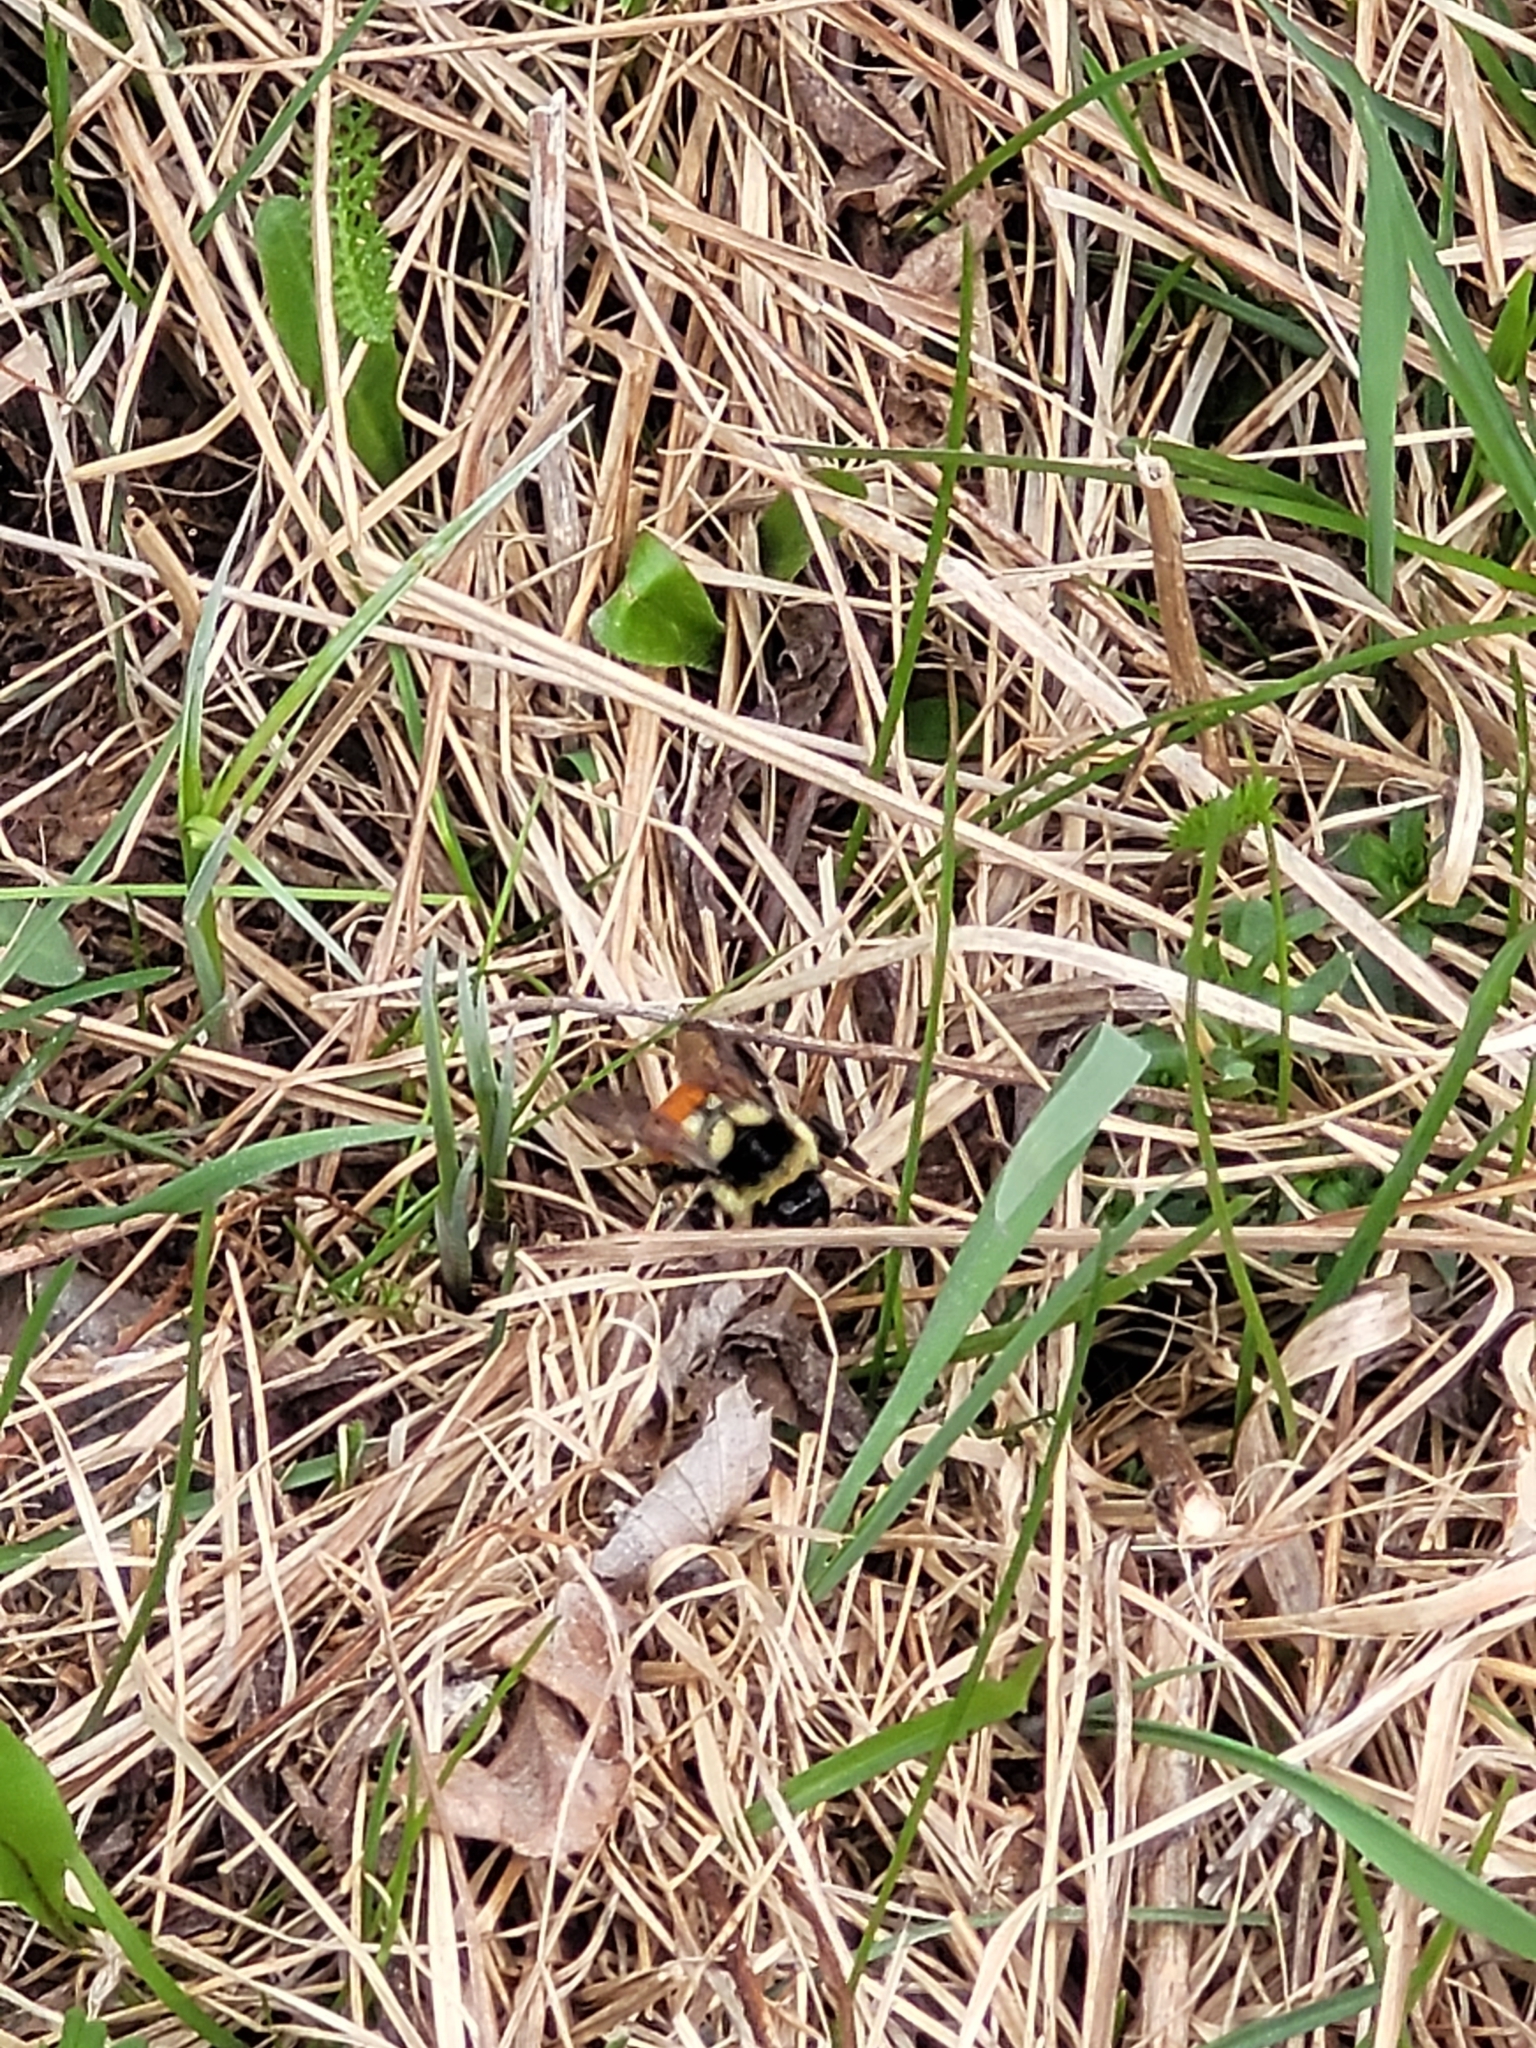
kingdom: Animalia
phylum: Arthropoda
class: Insecta
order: Hymenoptera
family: Apidae
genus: Bombus
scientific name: Bombus ternarius
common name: Tri-colored bumble bee
